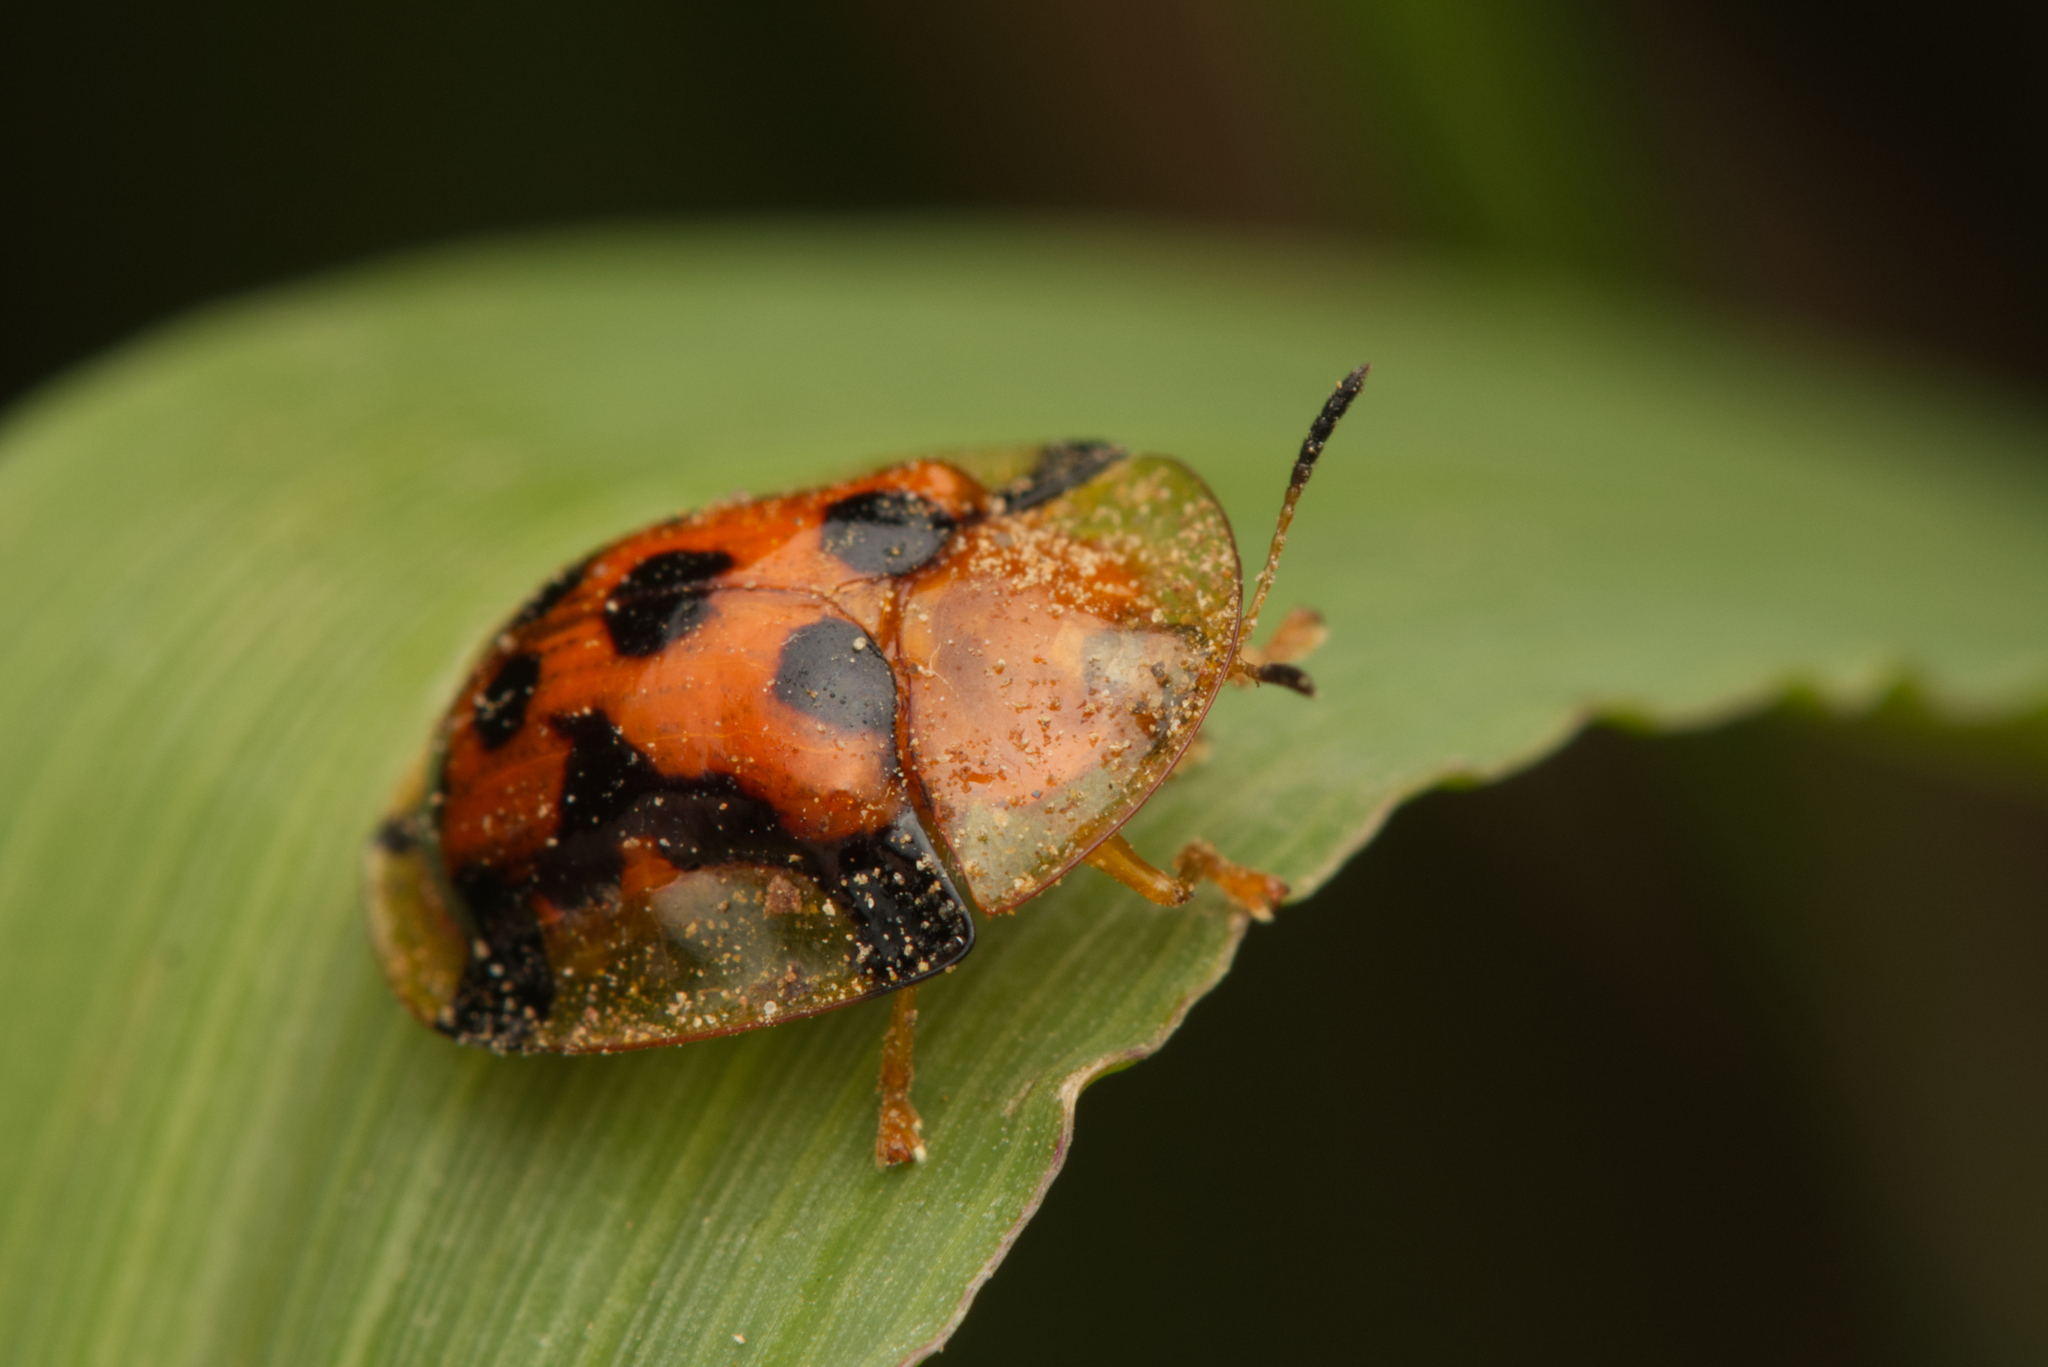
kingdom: Animalia
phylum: Arthropoda
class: Insecta
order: Coleoptera
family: Chrysomelidae
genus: Aspidimorpha
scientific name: Aspidimorpha westwoodii
